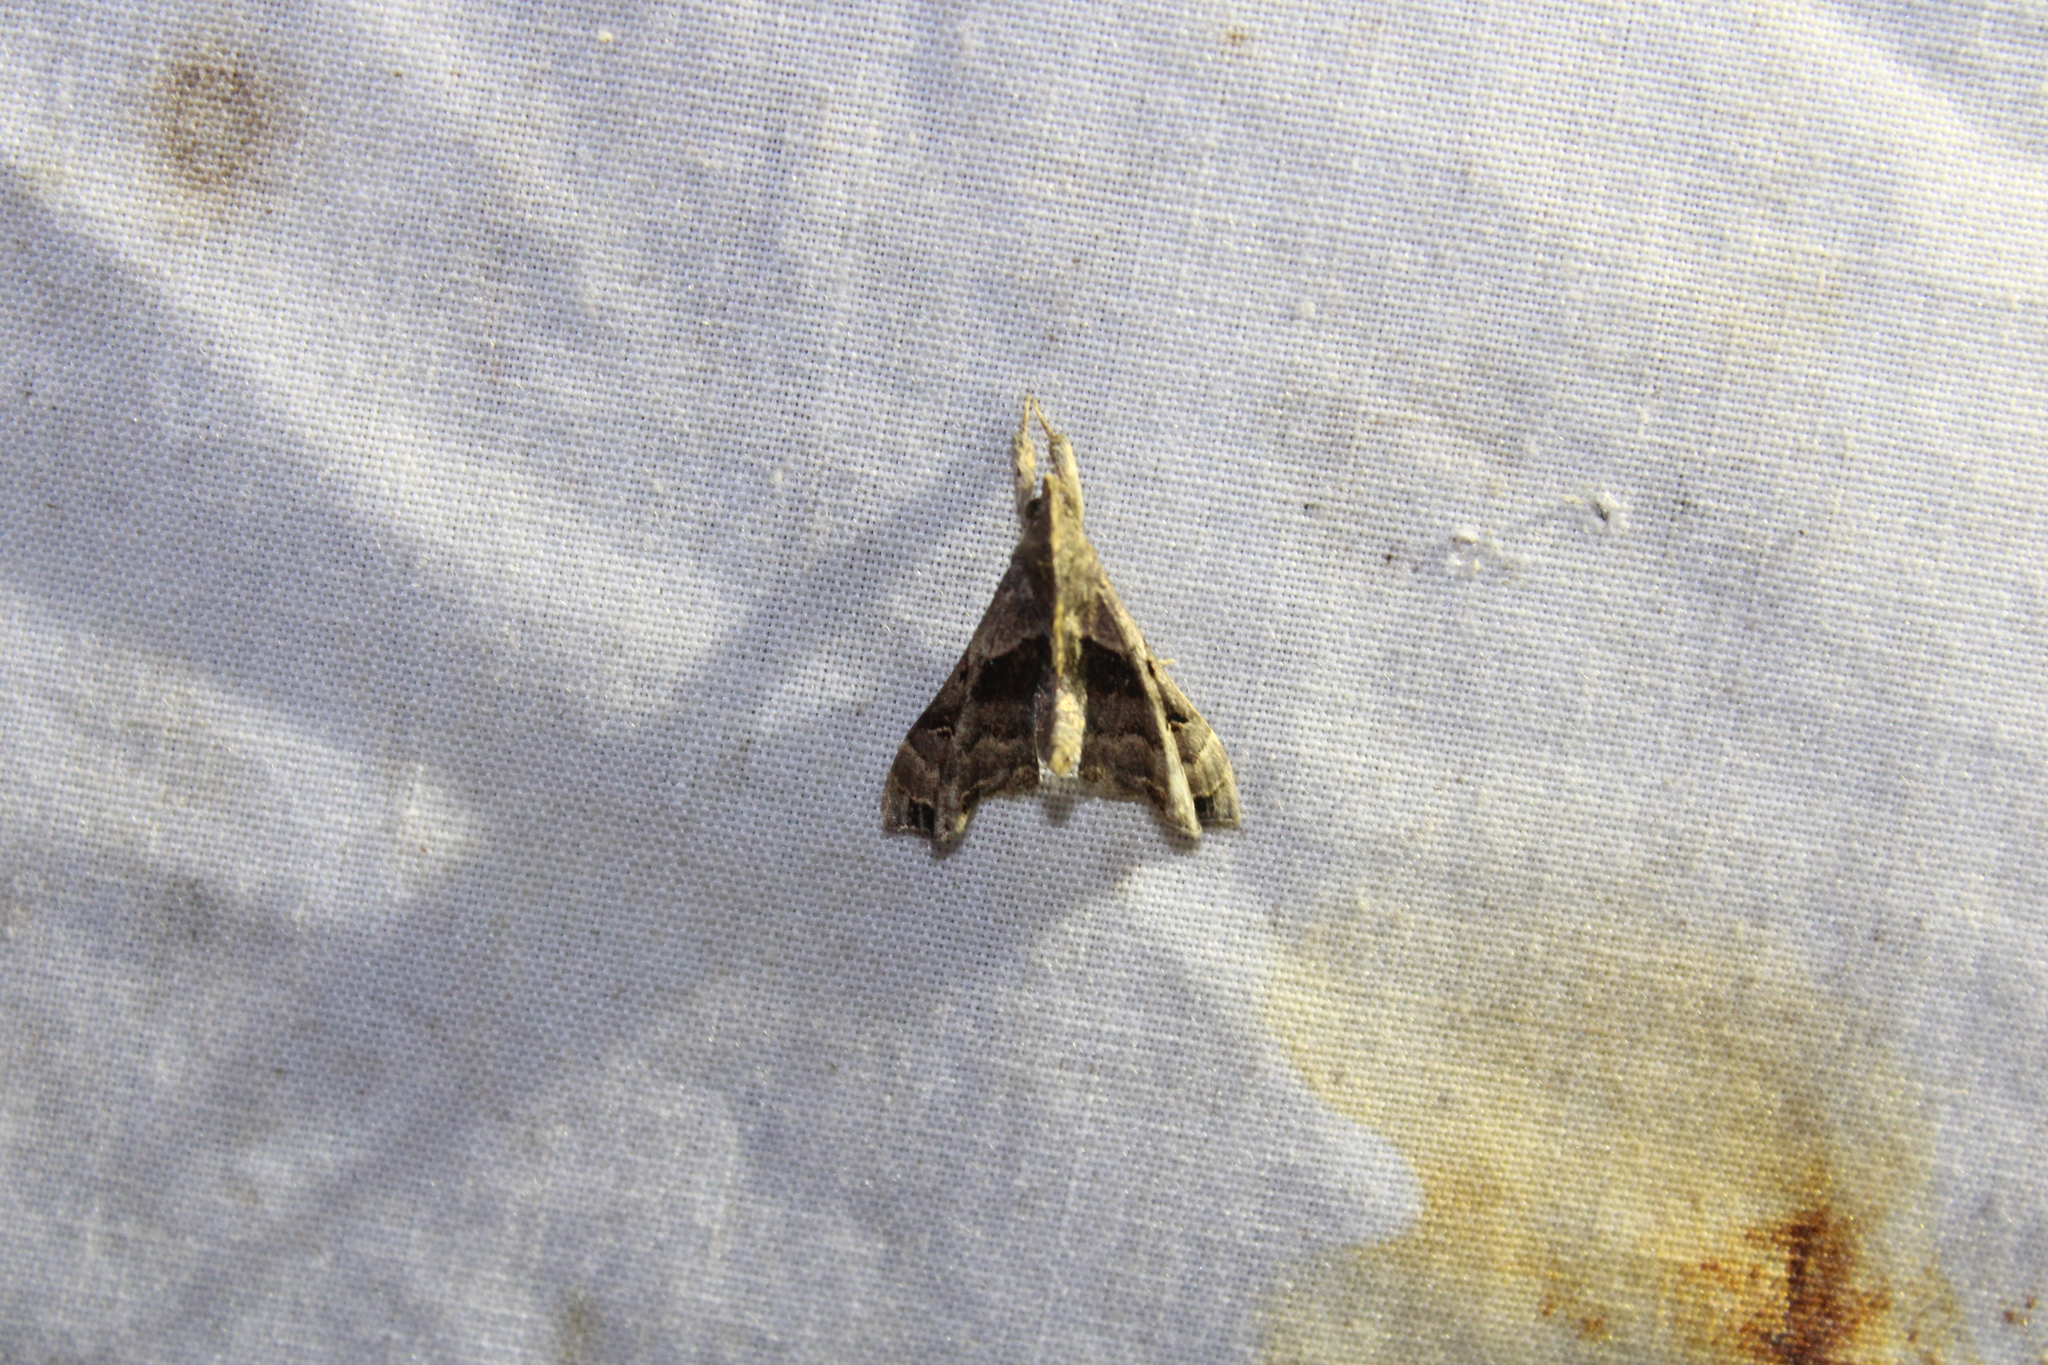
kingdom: Animalia
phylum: Arthropoda
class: Insecta
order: Lepidoptera
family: Erebidae
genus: Palthis
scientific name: Palthis asopialis
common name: Faint-spotted palthis moth
